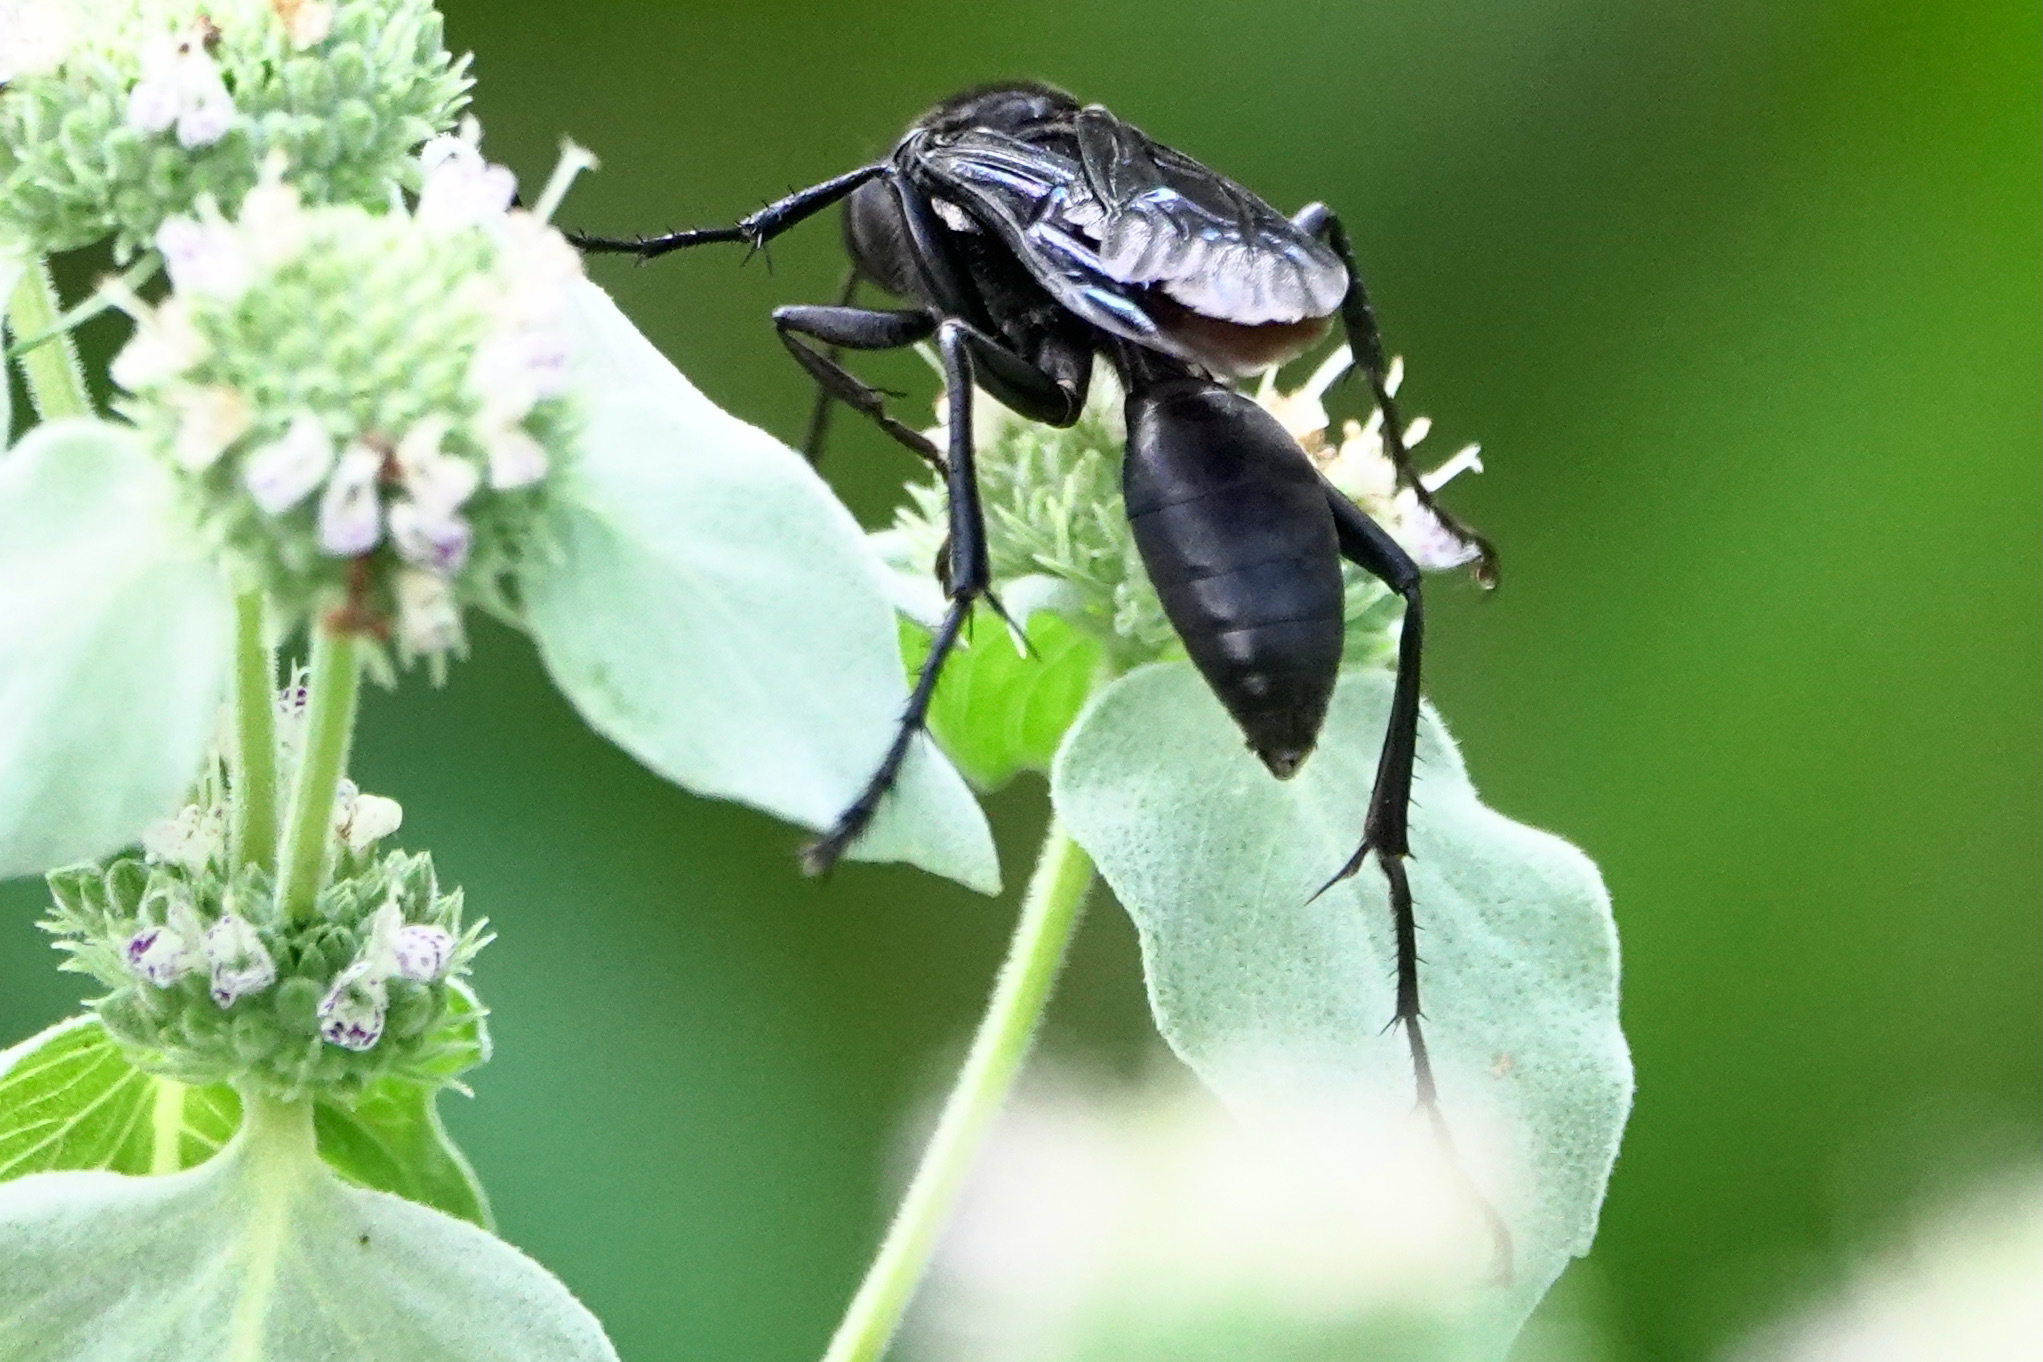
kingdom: Animalia
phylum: Arthropoda
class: Insecta
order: Hymenoptera
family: Sphecidae
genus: Sphex
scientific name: Sphex pensylvanicus
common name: Great black digger wasp
